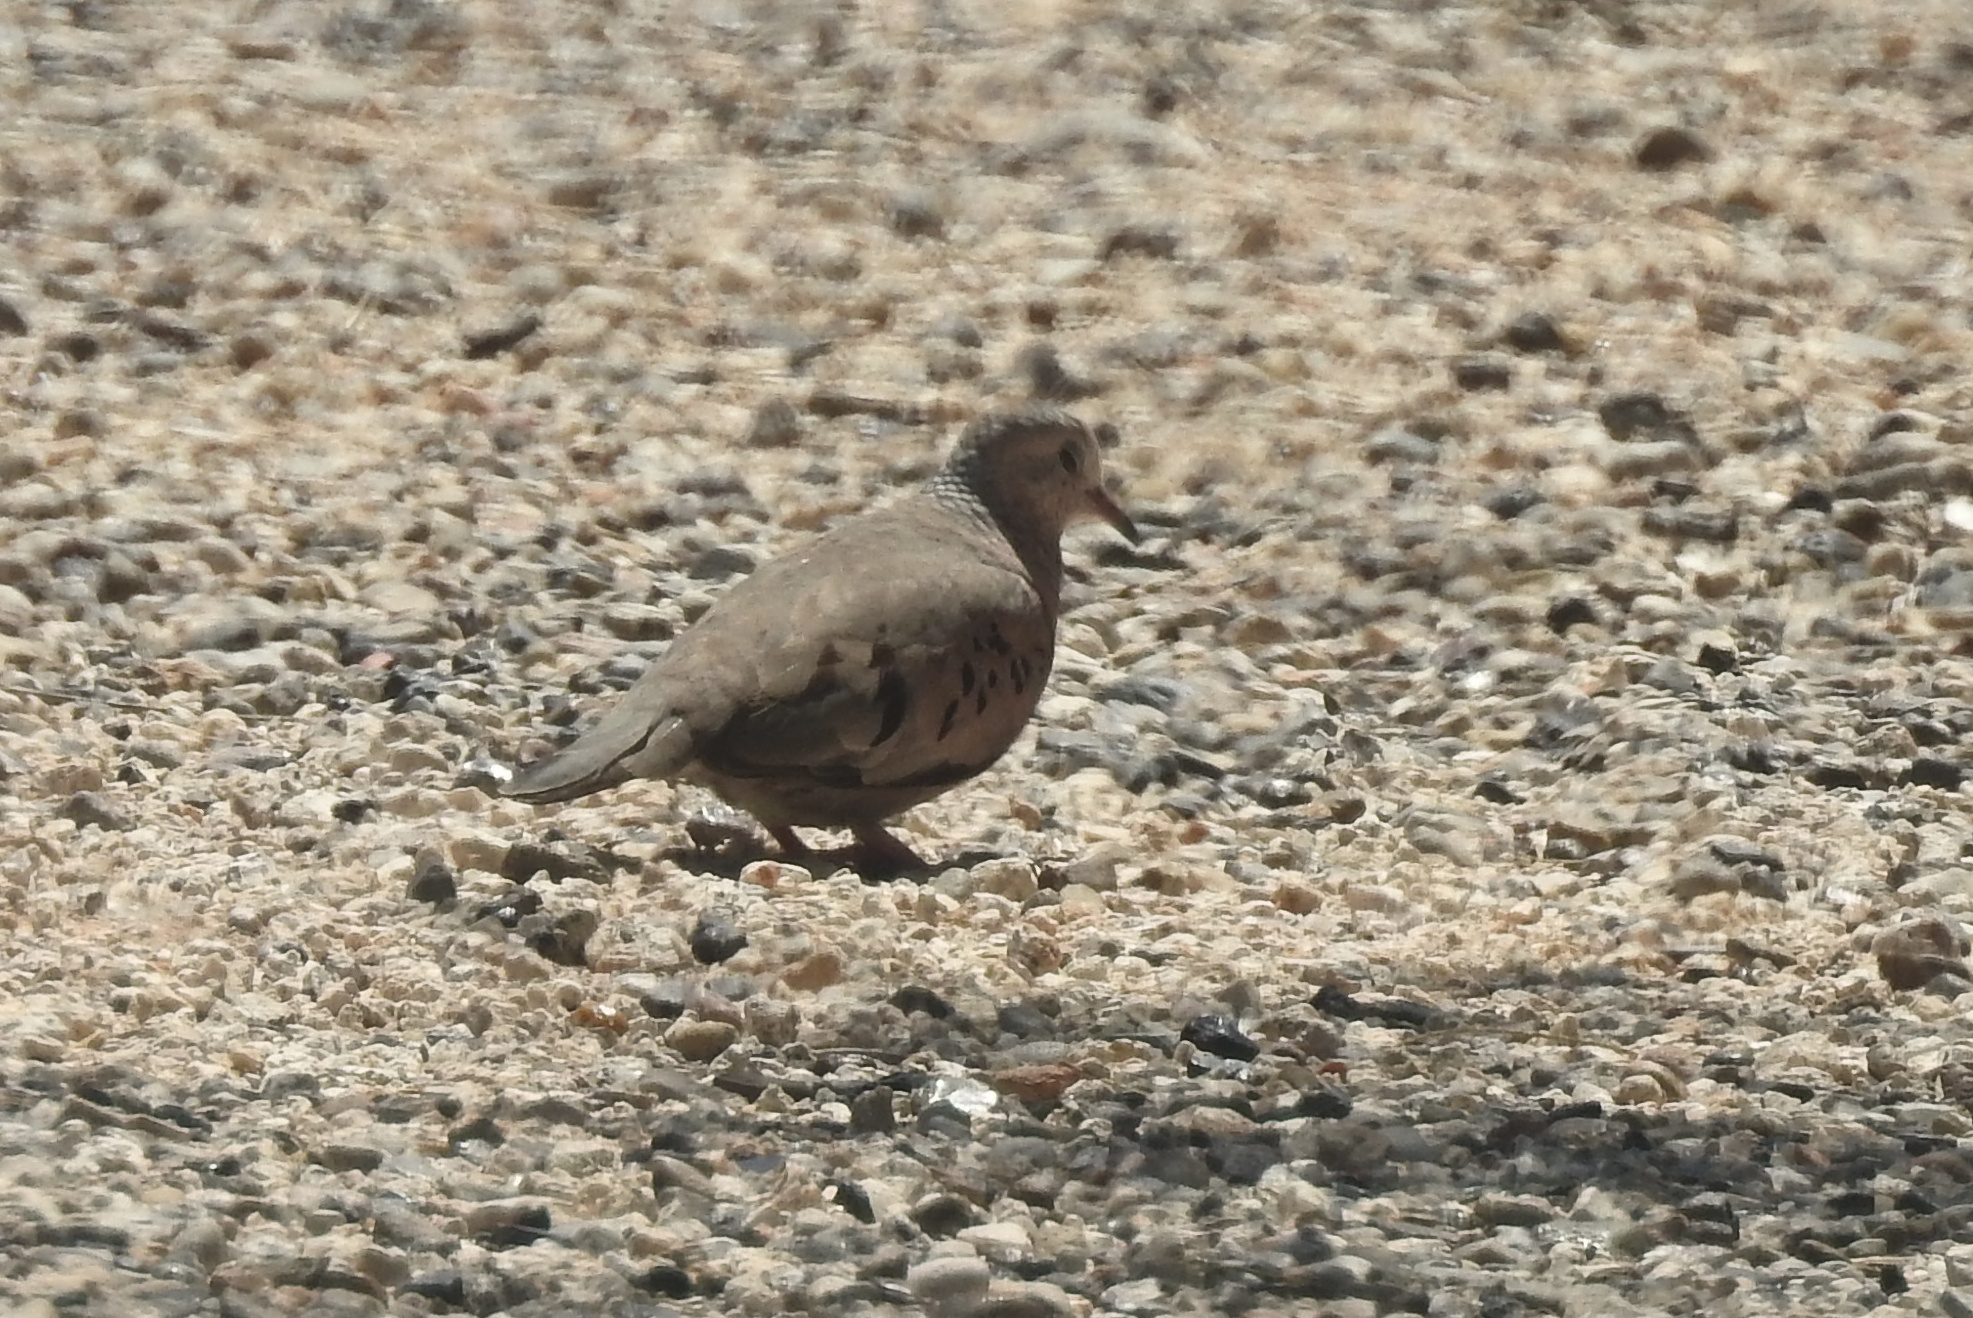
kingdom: Animalia
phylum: Chordata
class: Aves
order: Columbiformes
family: Columbidae
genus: Columbina
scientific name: Columbina passerina
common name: Common ground-dove
